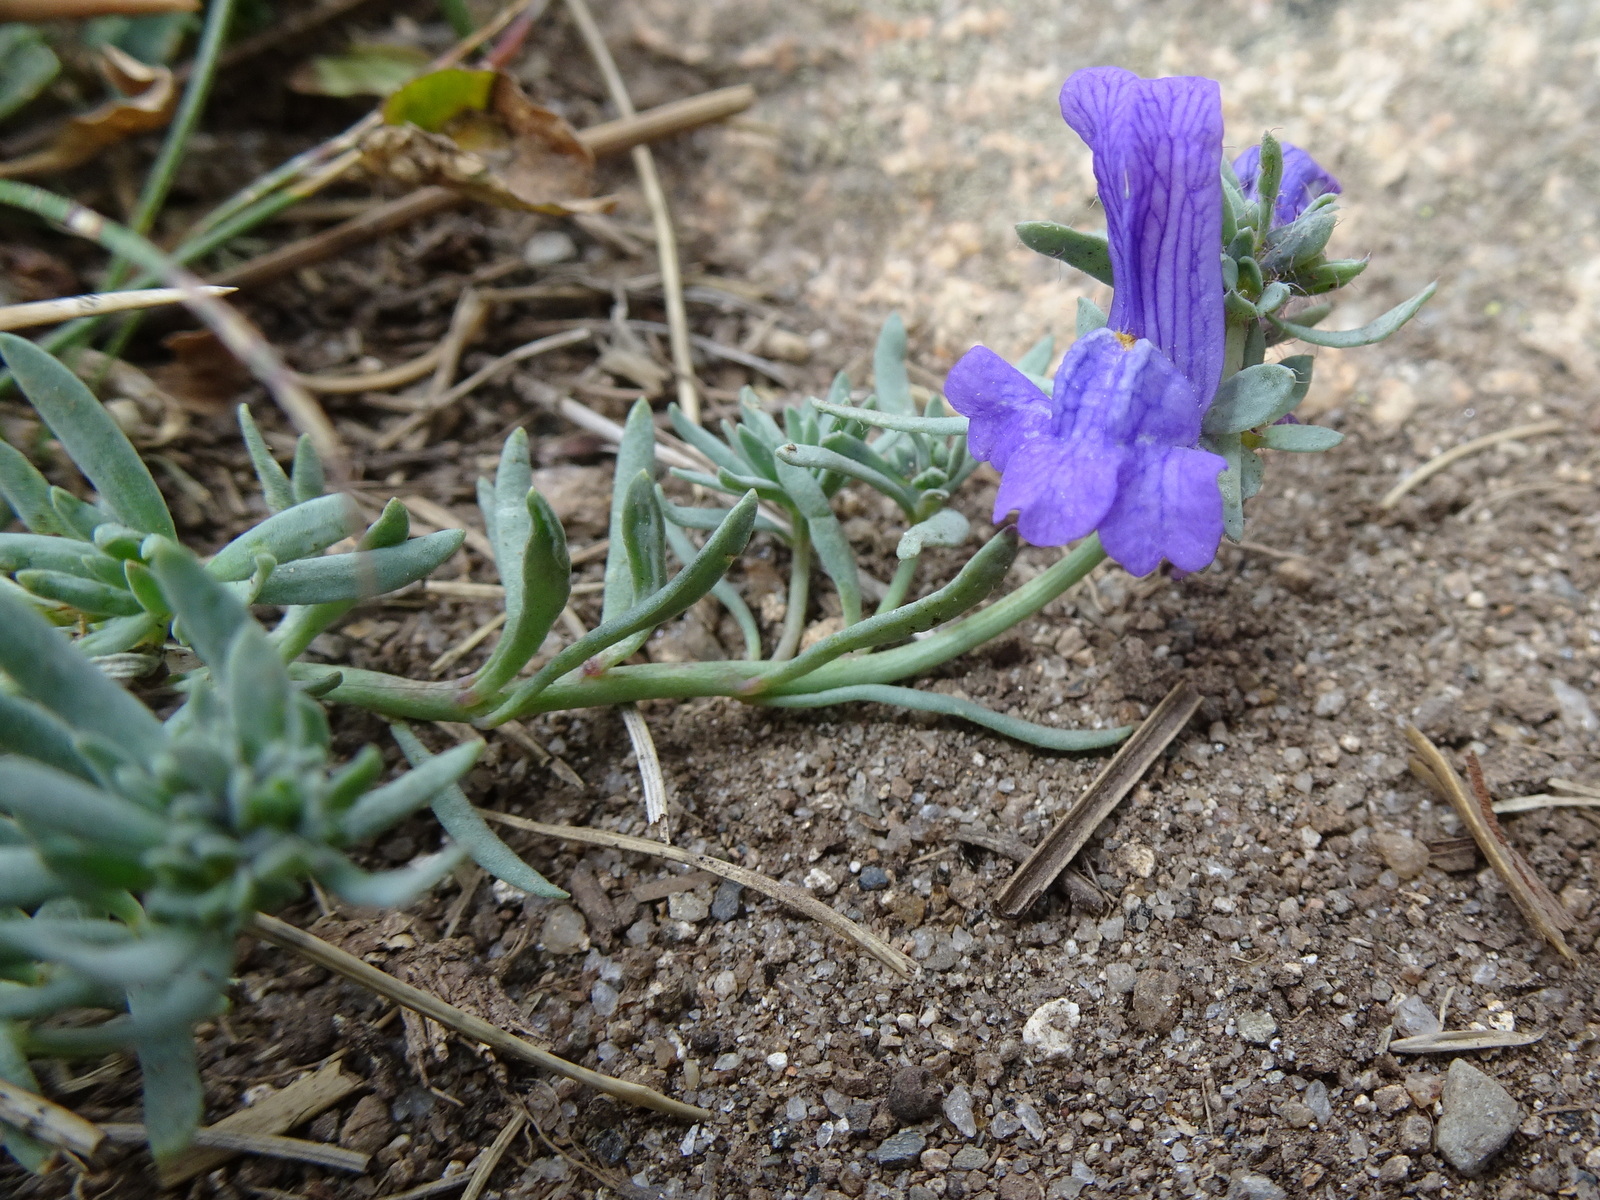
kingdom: Plantae
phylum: Tracheophyta
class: Magnoliopsida
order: Lamiales
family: Plantaginaceae
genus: Linaria
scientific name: Linaria alpina
